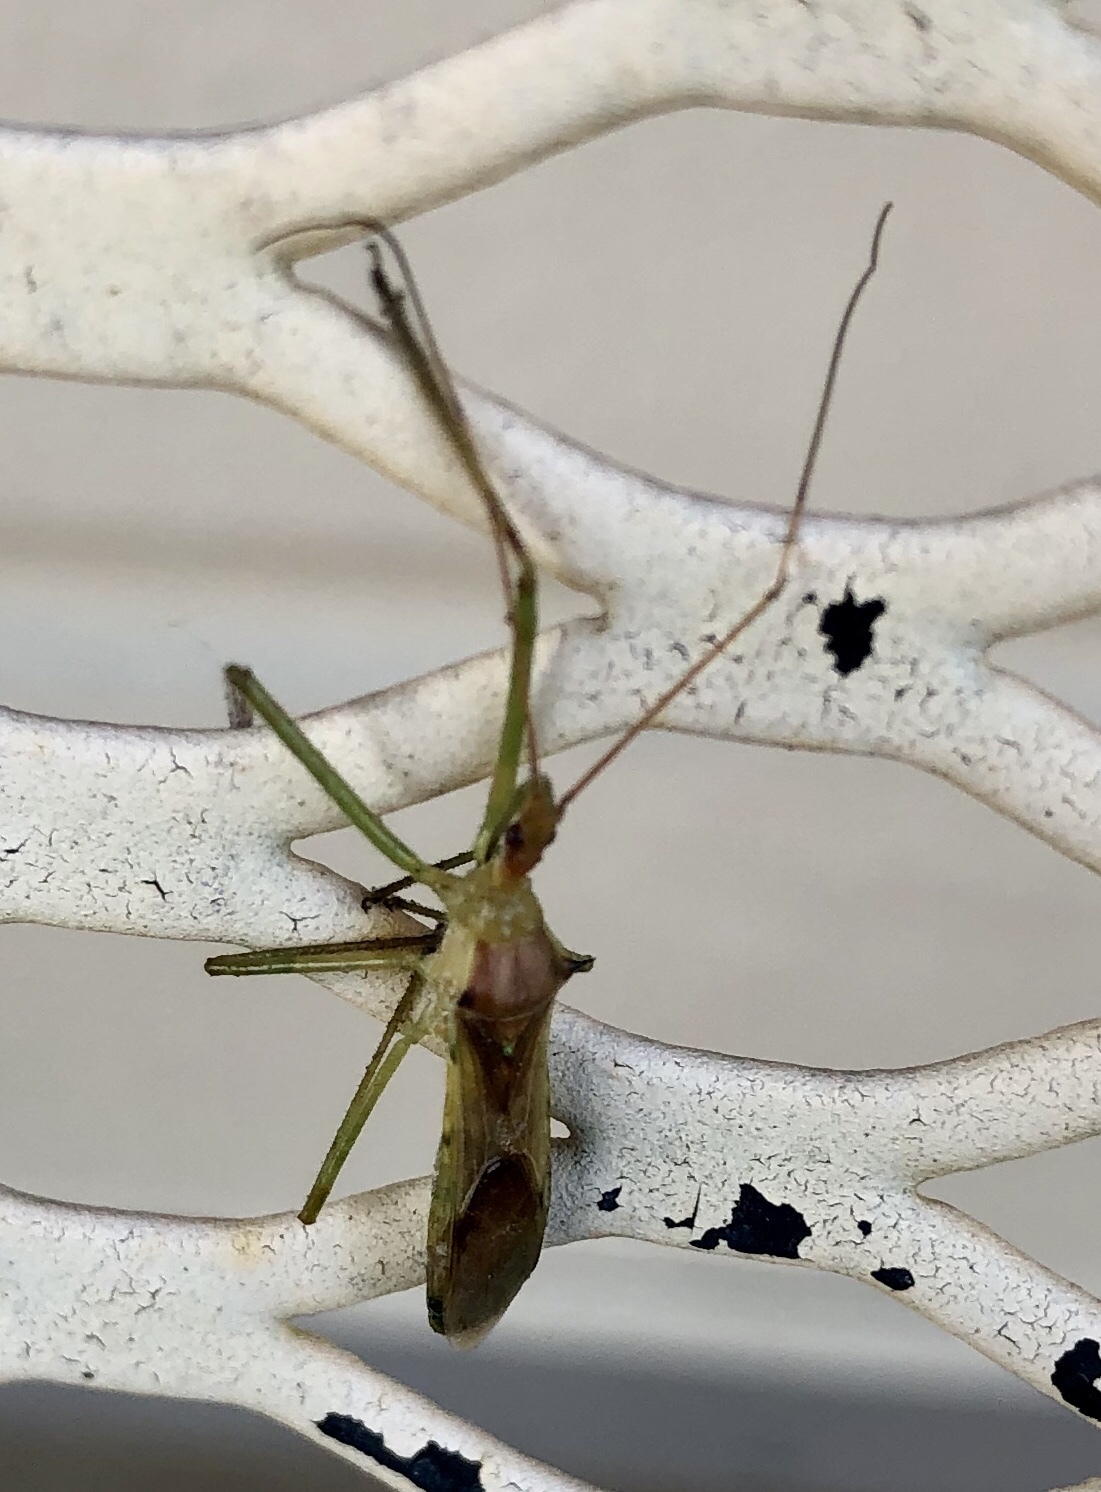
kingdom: Animalia
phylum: Arthropoda
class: Insecta
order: Hemiptera
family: Reduviidae
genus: Zelus
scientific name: Zelus luridus
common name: Pale green assassin bug
